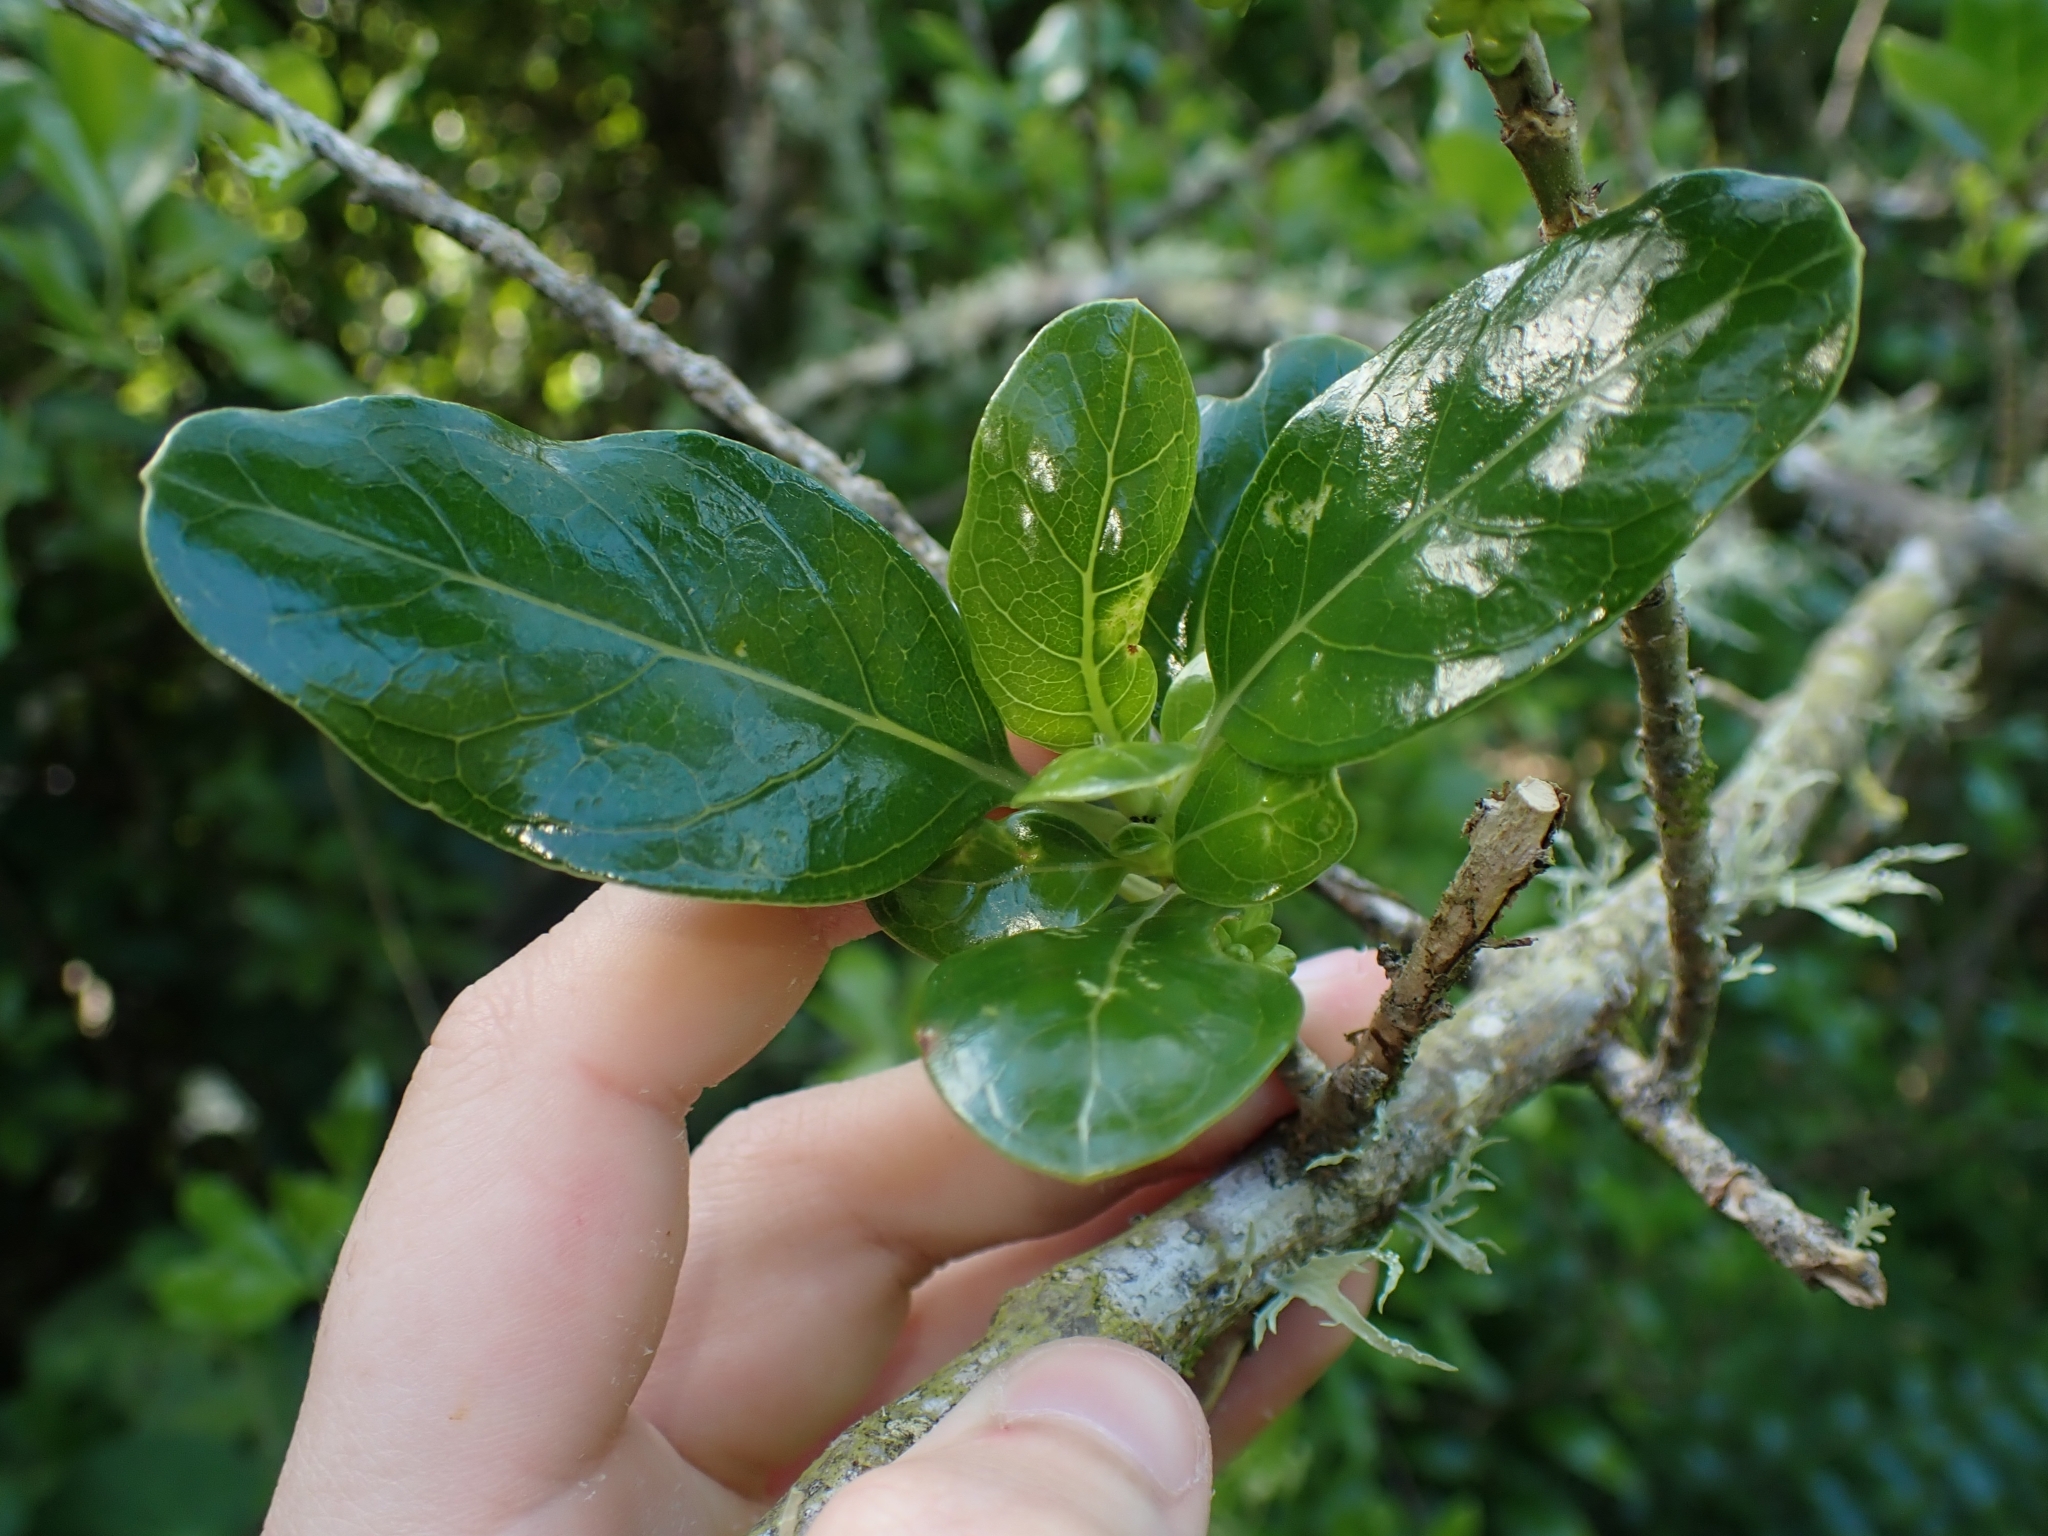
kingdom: Plantae
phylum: Tracheophyta
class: Magnoliopsida
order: Gentianales
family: Rubiaceae
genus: Coprosma
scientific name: Coprosma repens
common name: Tree bedstraw
